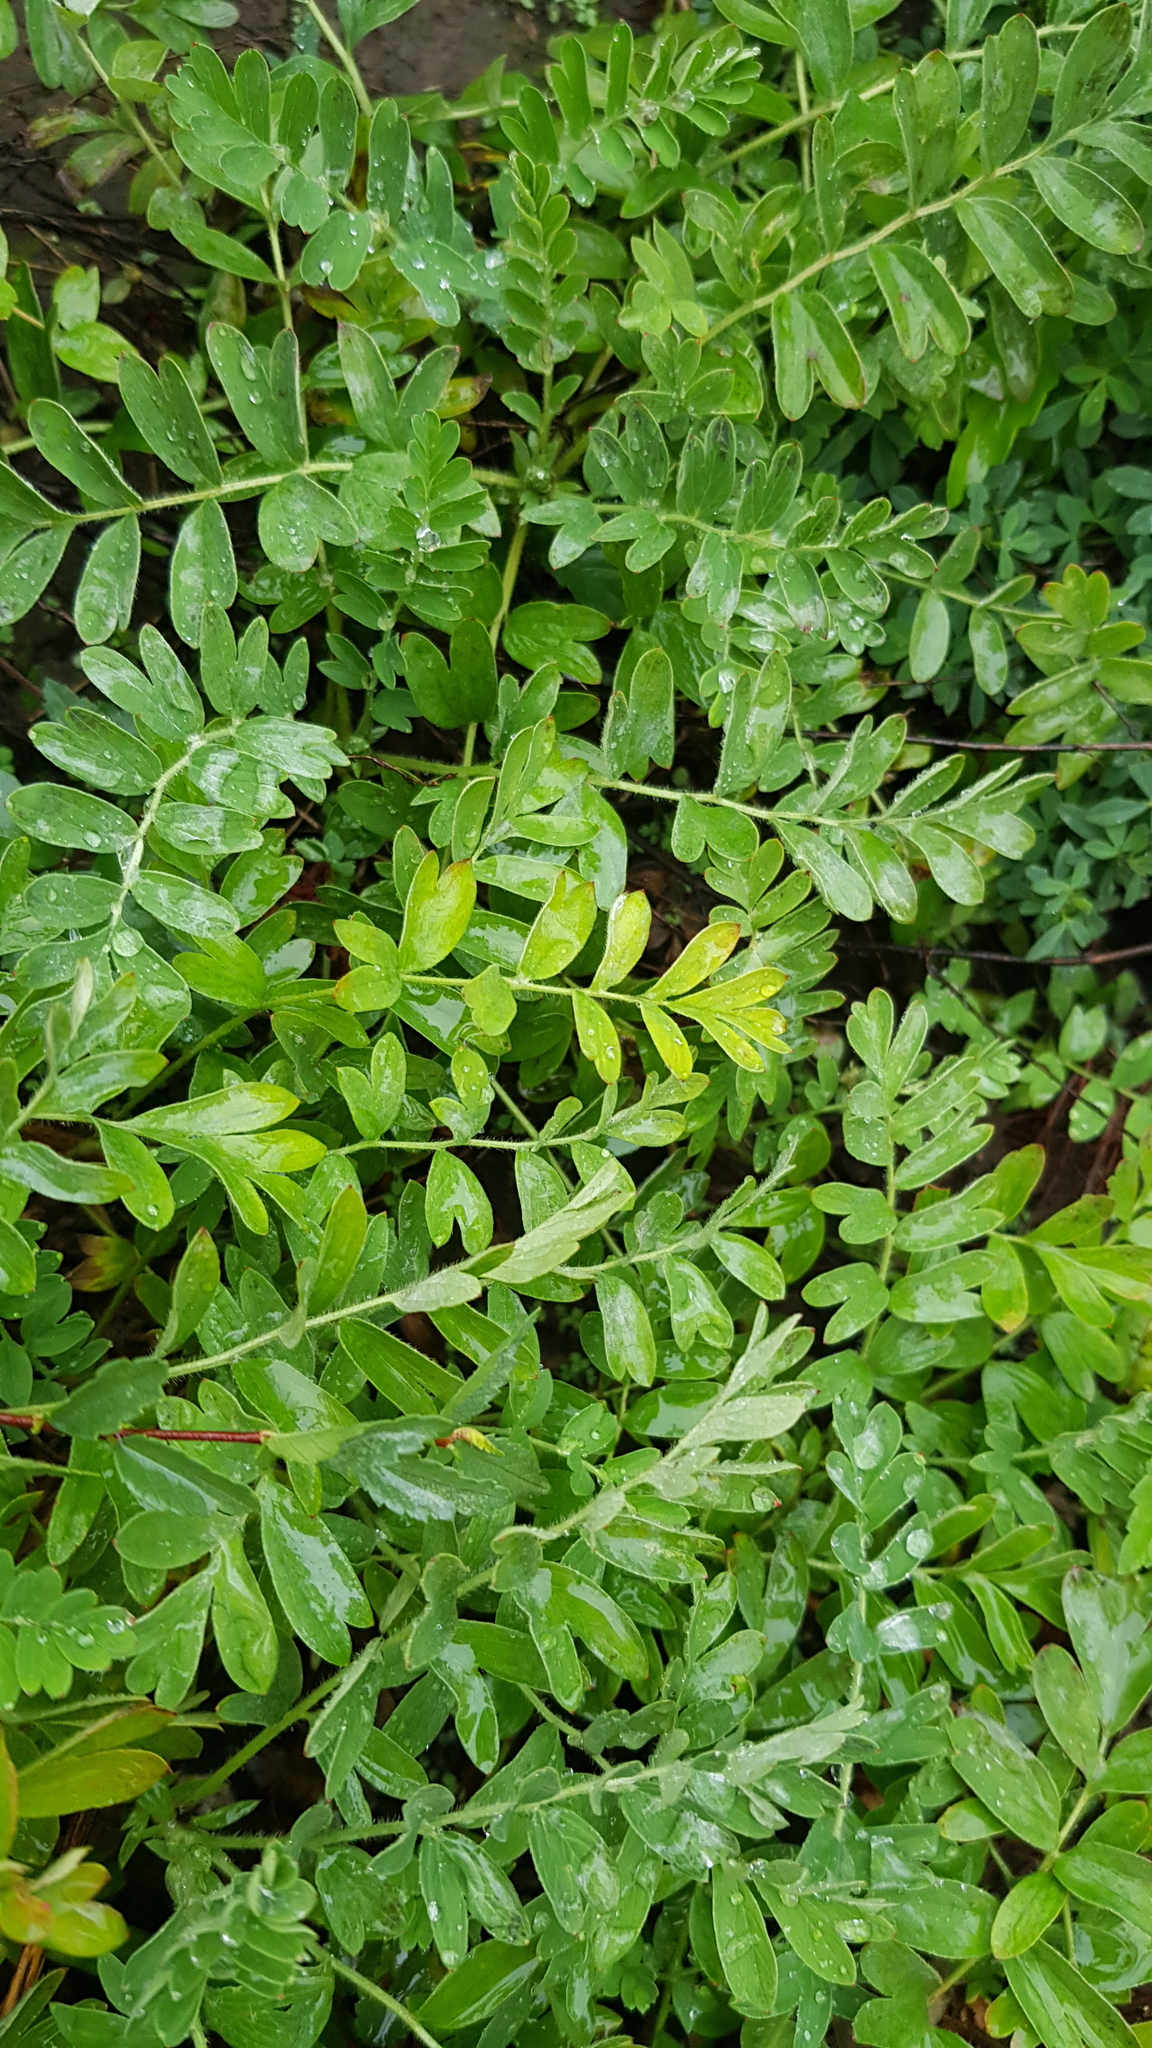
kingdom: Plantae
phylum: Tracheophyta
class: Magnoliopsida
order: Rosales
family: Rosaceae
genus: Sibbaldianthe
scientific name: Sibbaldianthe bifurca
